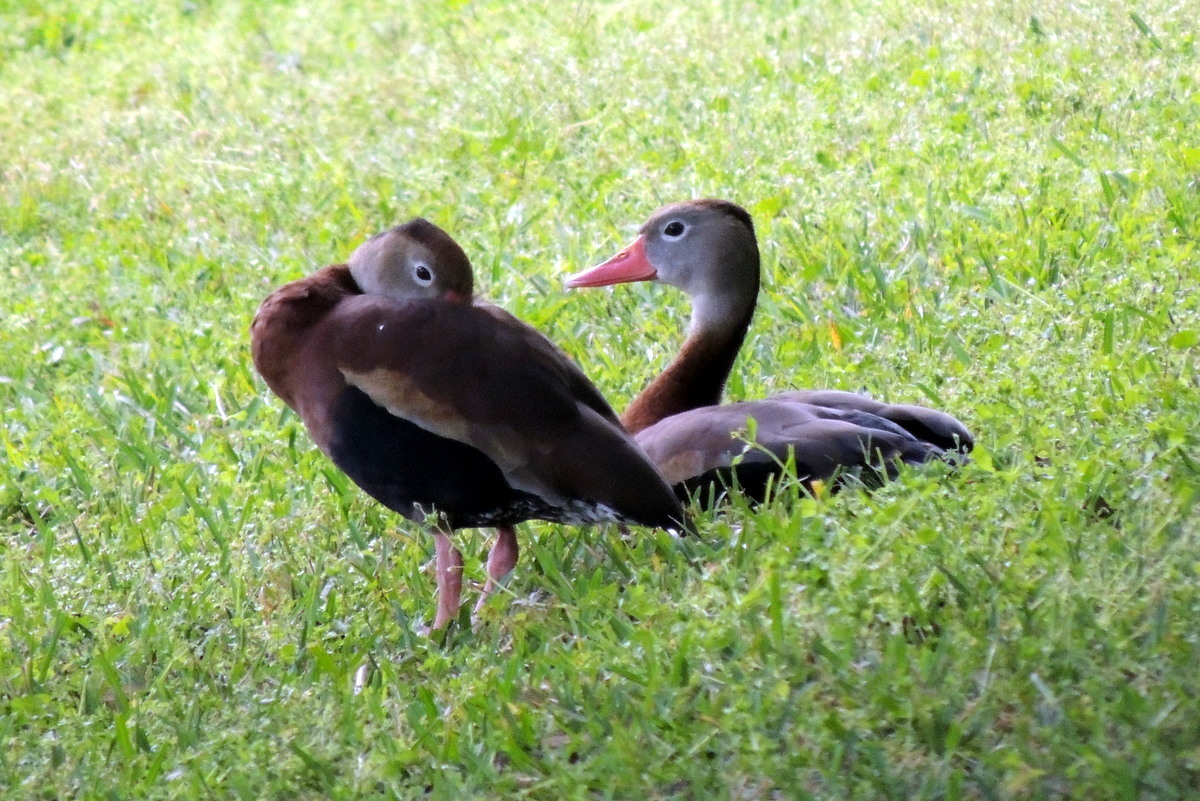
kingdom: Animalia
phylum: Chordata
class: Aves
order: Anseriformes
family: Anatidae
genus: Dendrocygna
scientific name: Dendrocygna autumnalis
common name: Black-bellied whistling duck
